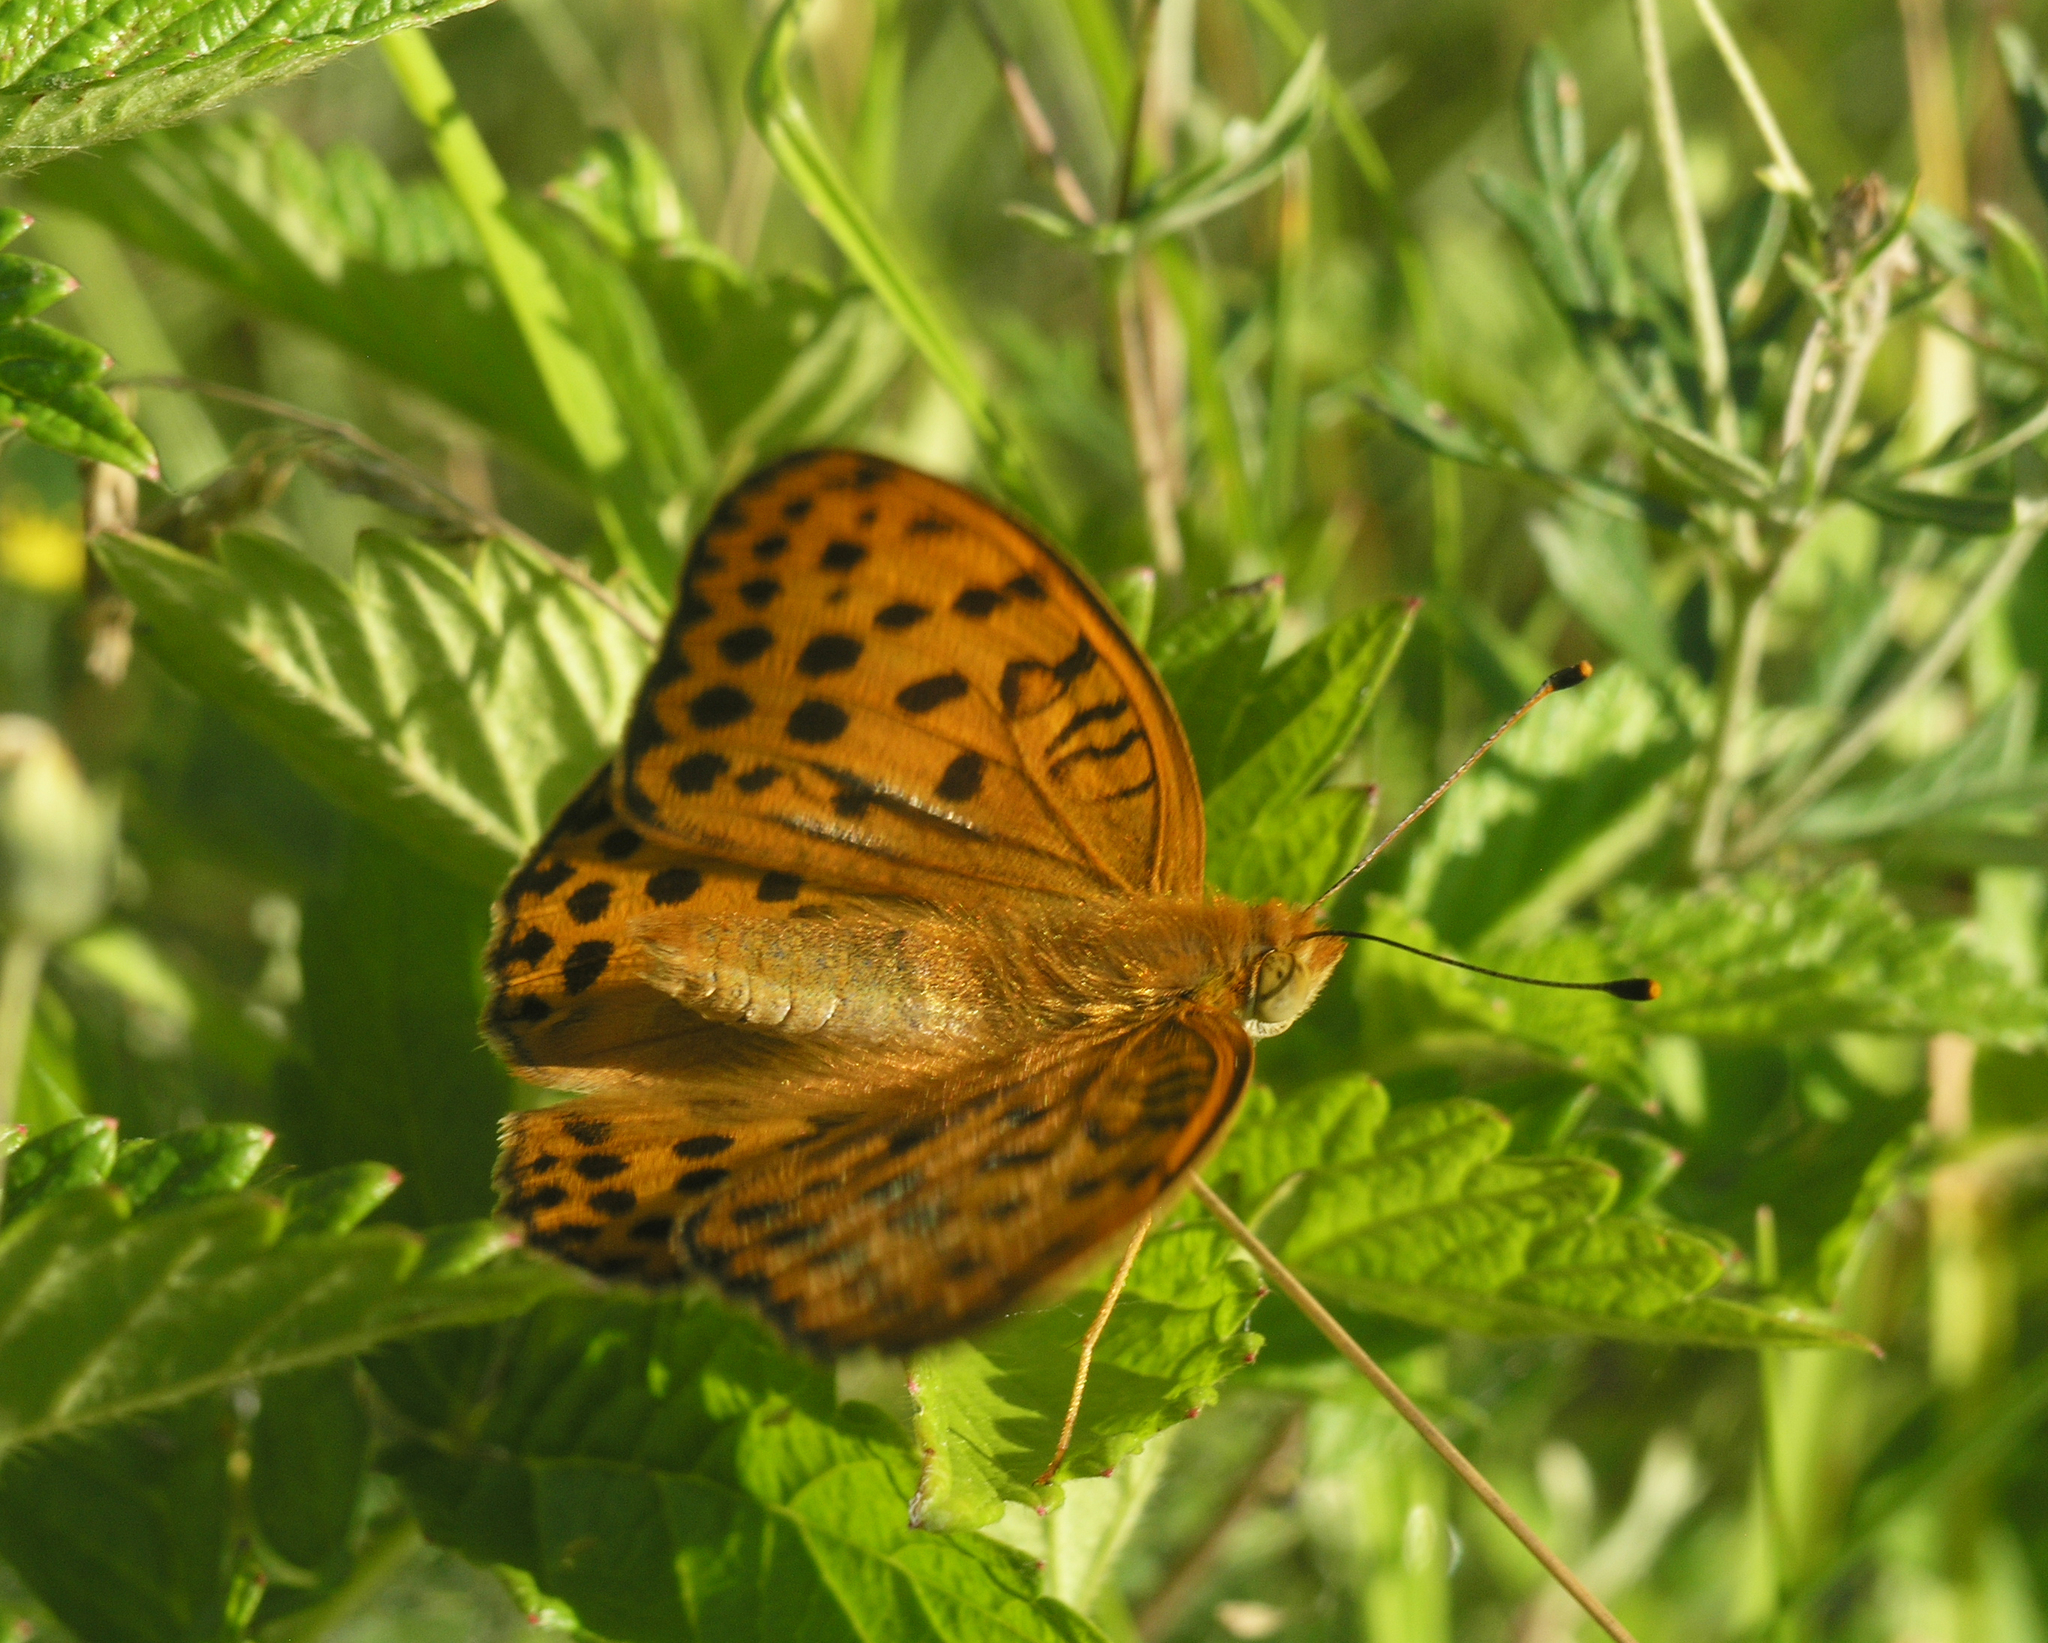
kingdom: Animalia
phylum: Arthropoda
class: Insecta
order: Lepidoptera
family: Nymphalidae
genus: Argyronome
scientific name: Argyronome laodice
